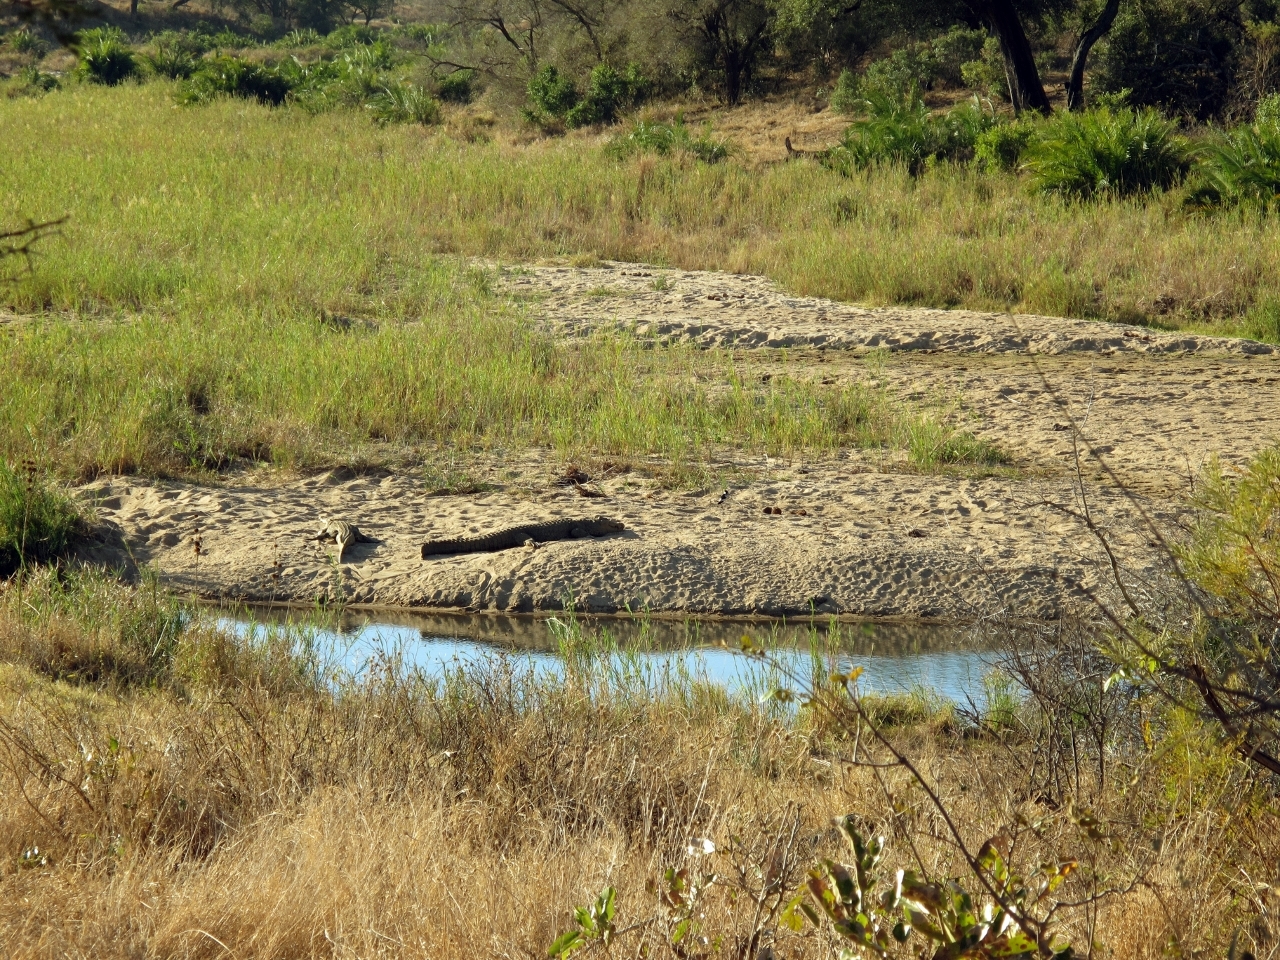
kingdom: Animalia
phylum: Chordata
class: Crocodylia
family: Crocodylidae
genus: Crocodylus
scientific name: Crocodylus niloticus
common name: Nile crocodile
